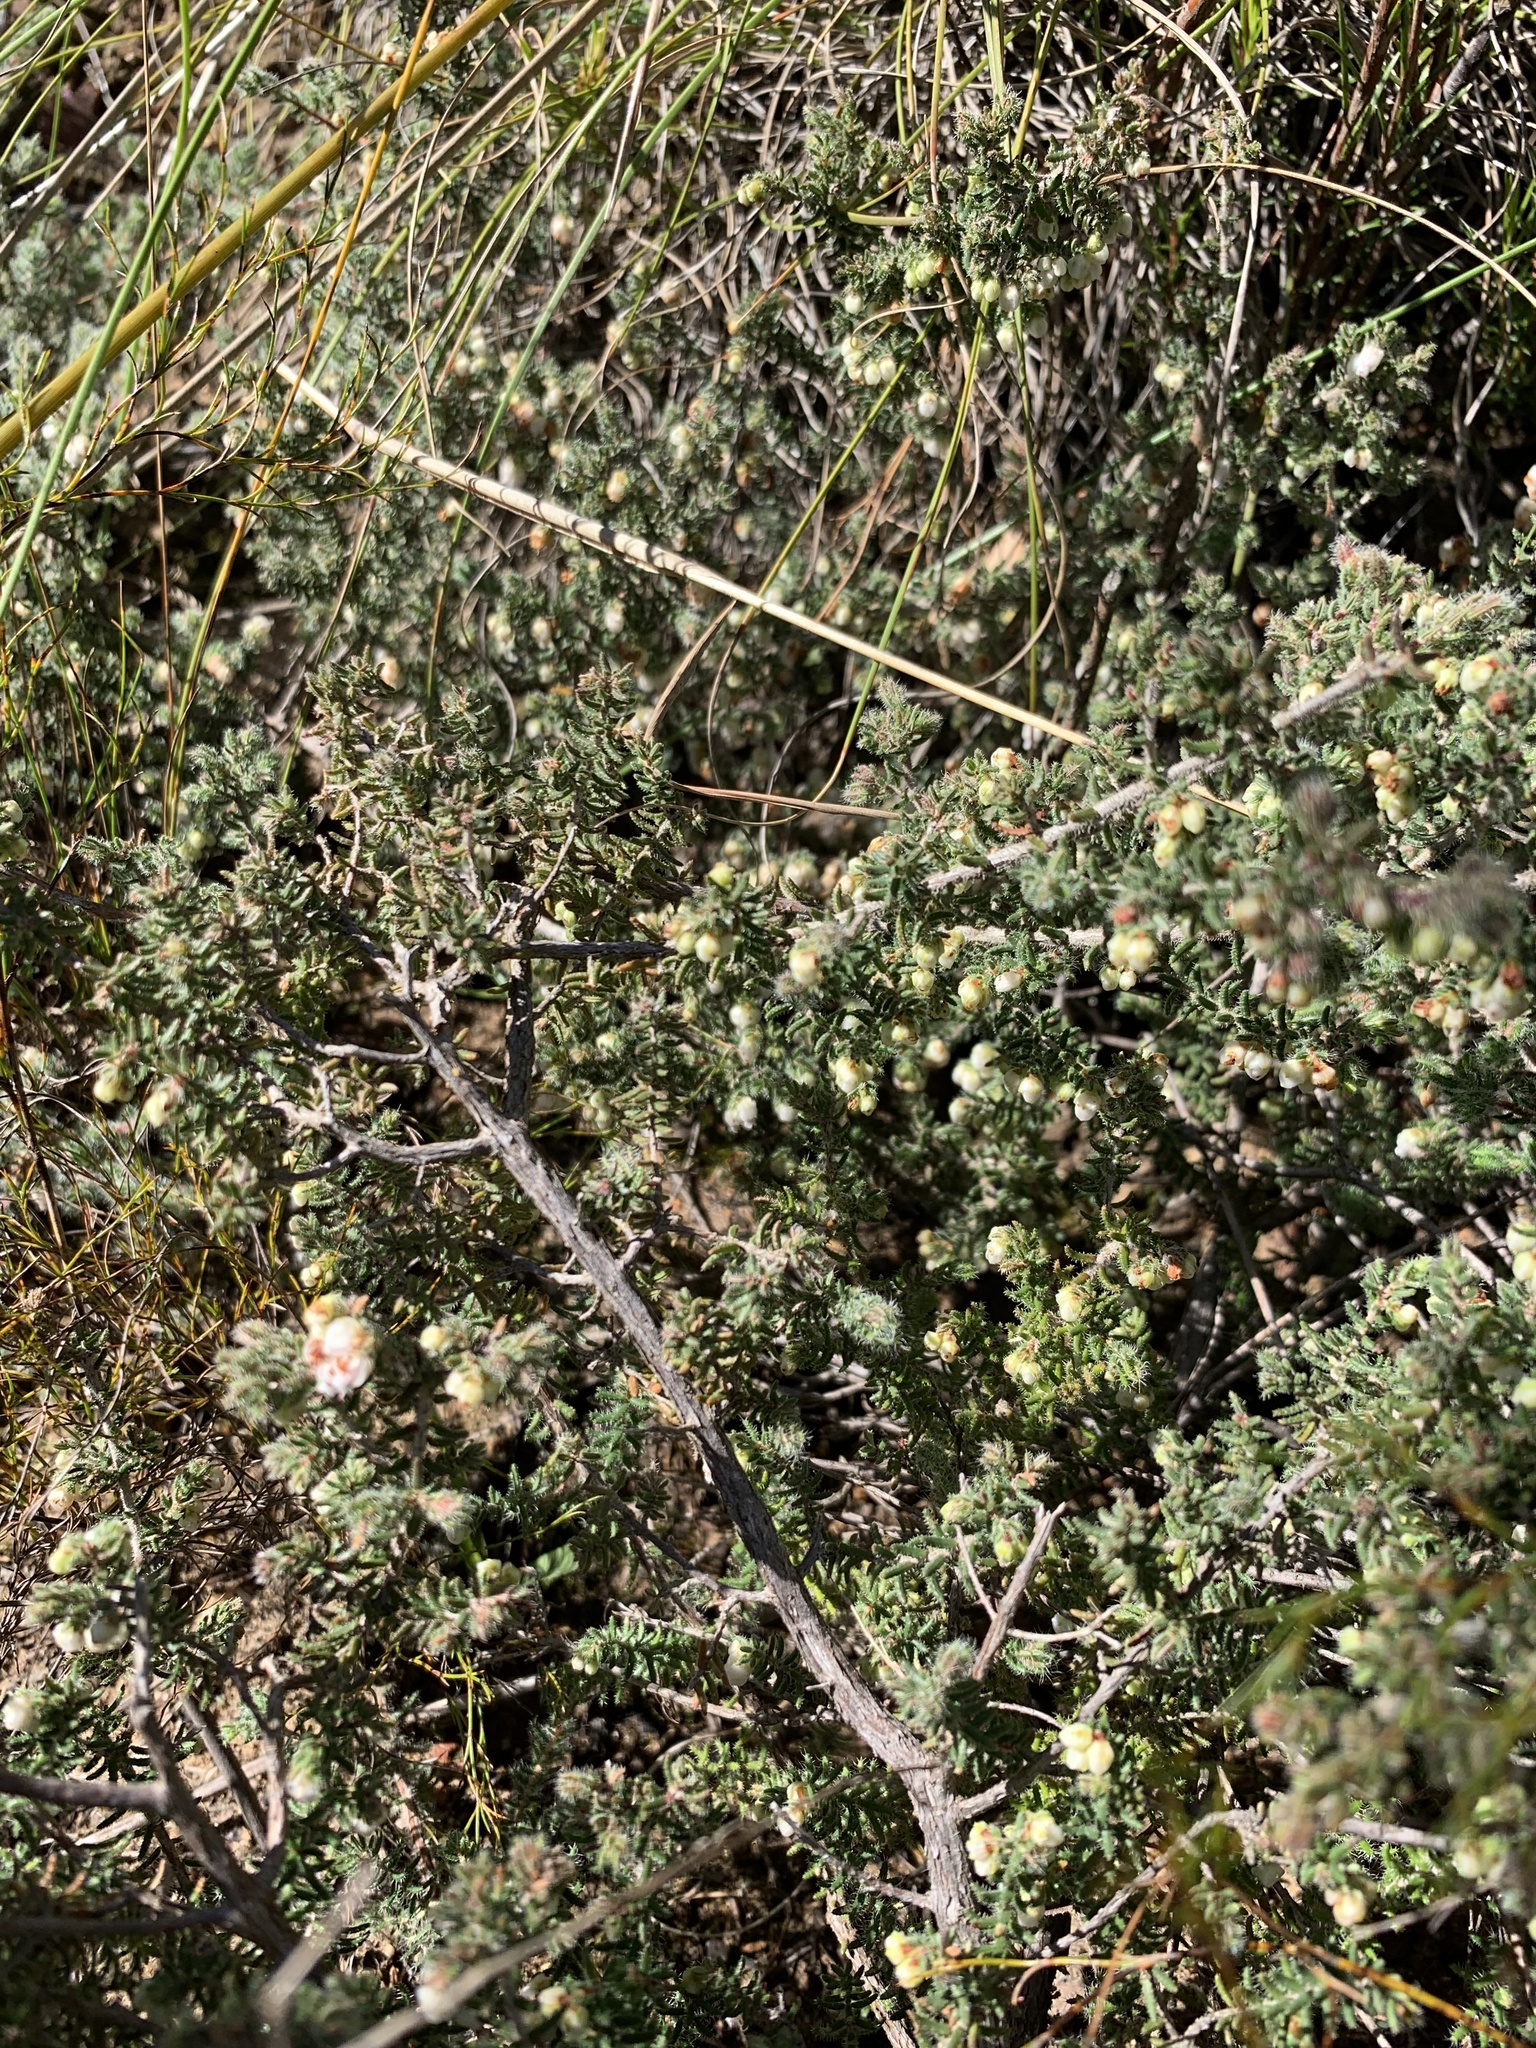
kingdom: Plantae
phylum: Tracheophyta
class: Magnoliopsida
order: Ericales
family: Ericaceae
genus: Erica
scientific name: Erica totta
